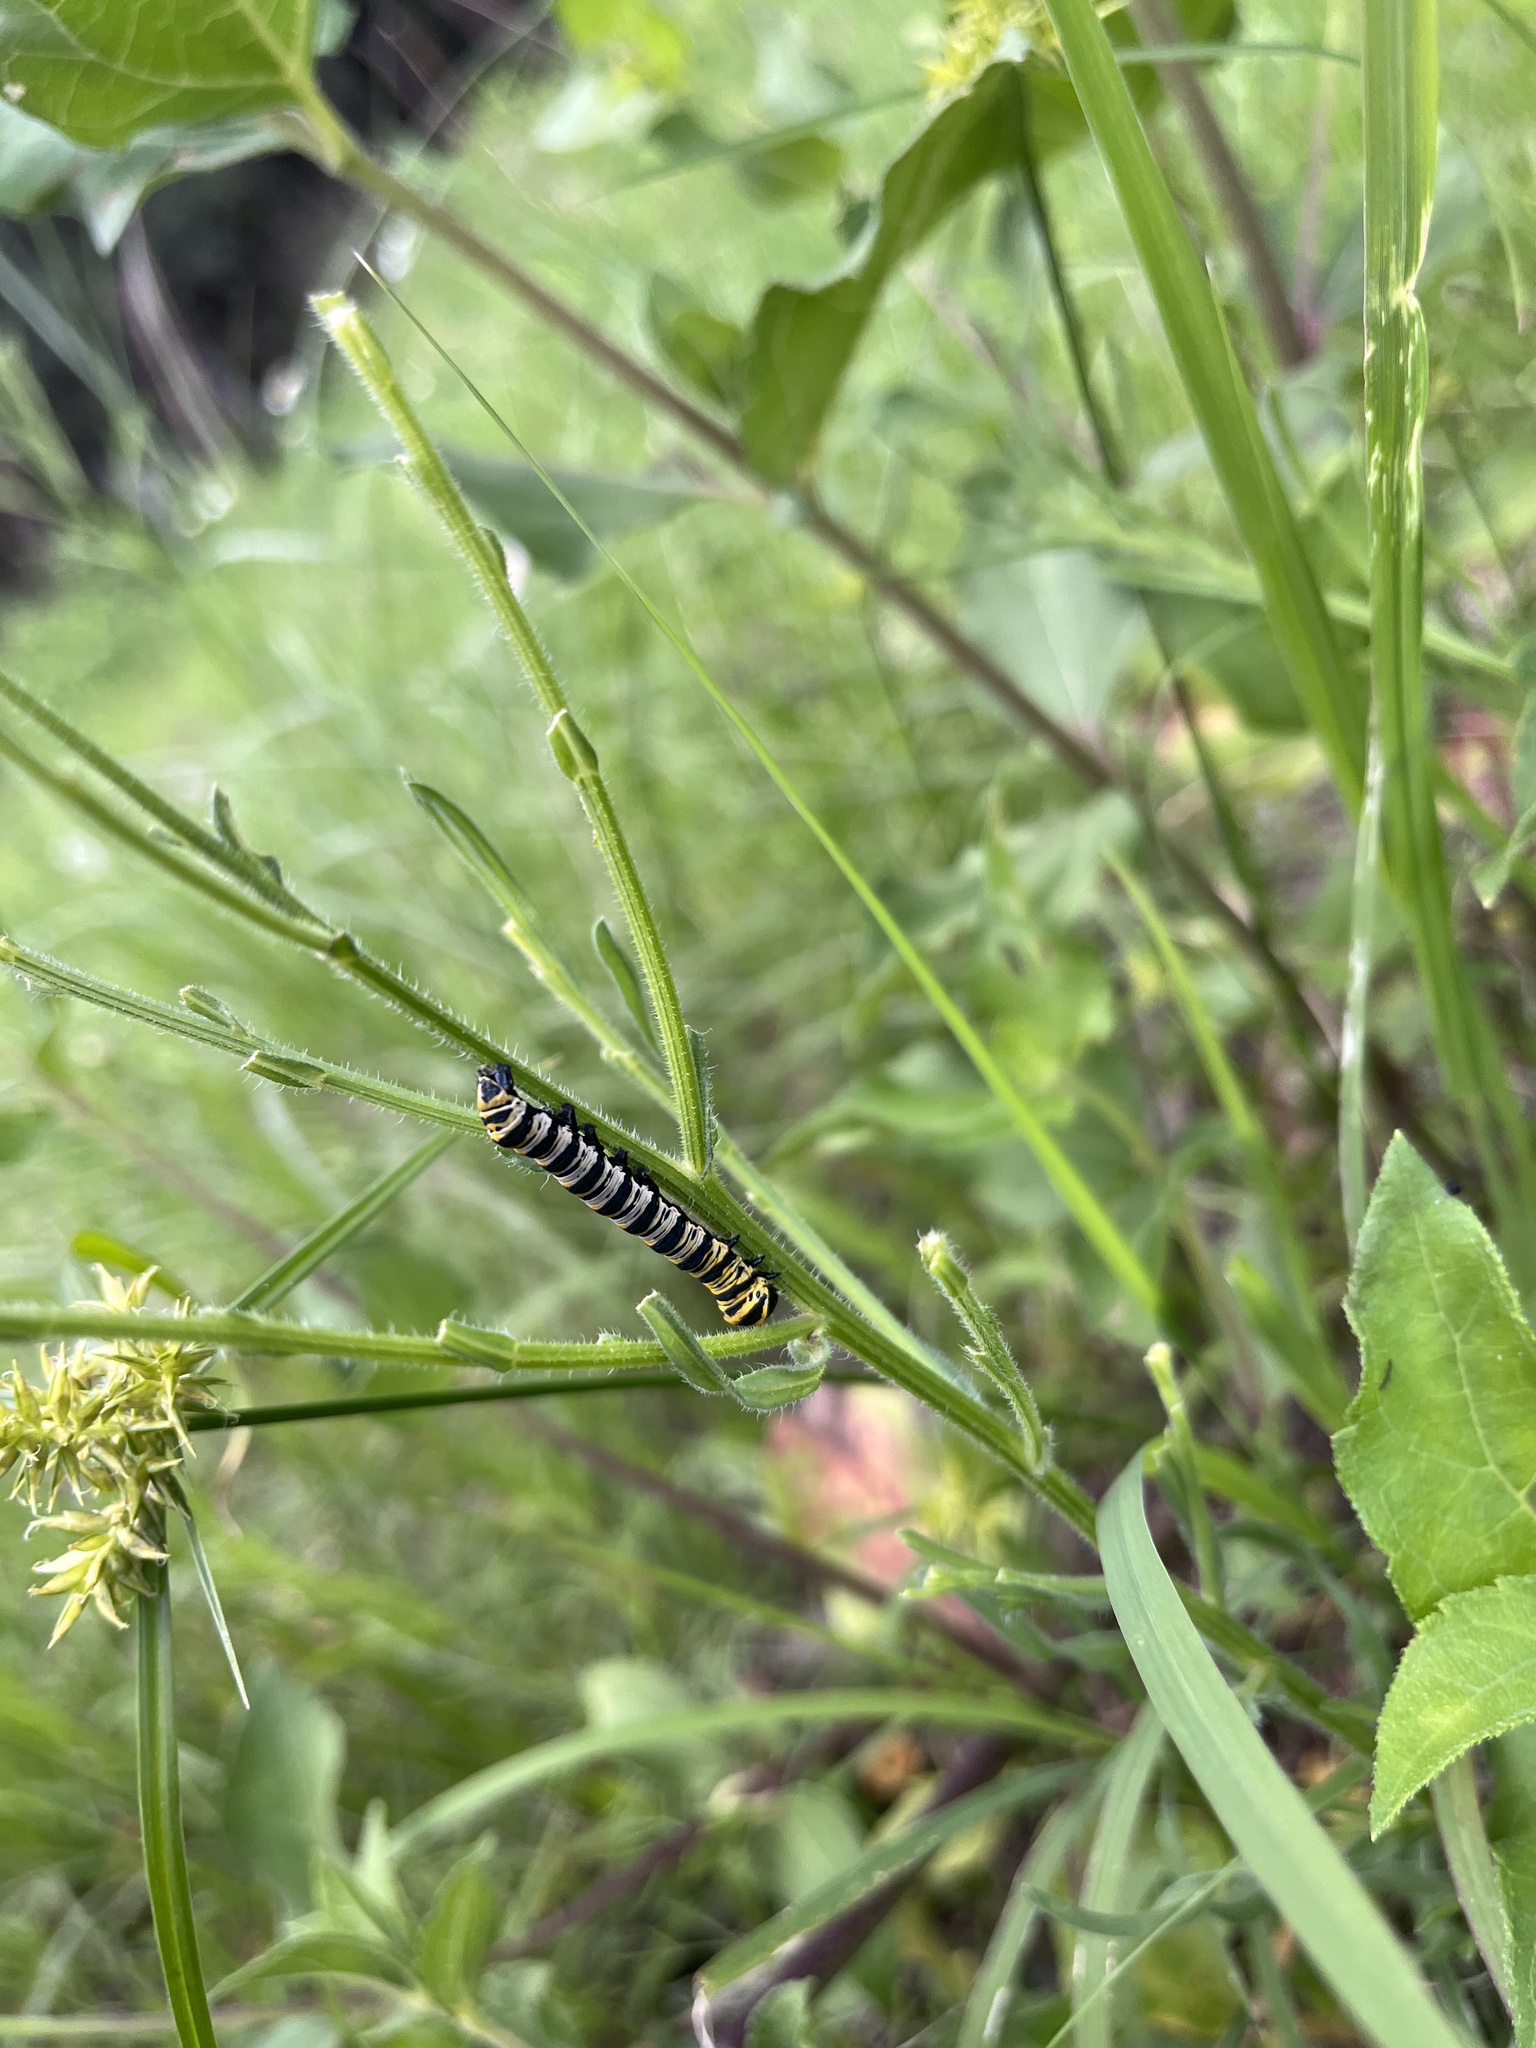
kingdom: Animalia
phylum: Arthropoda
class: Insecta
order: Lepidoptera
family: Noctuidae
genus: Cucullia
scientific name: Cucullia lilacina
